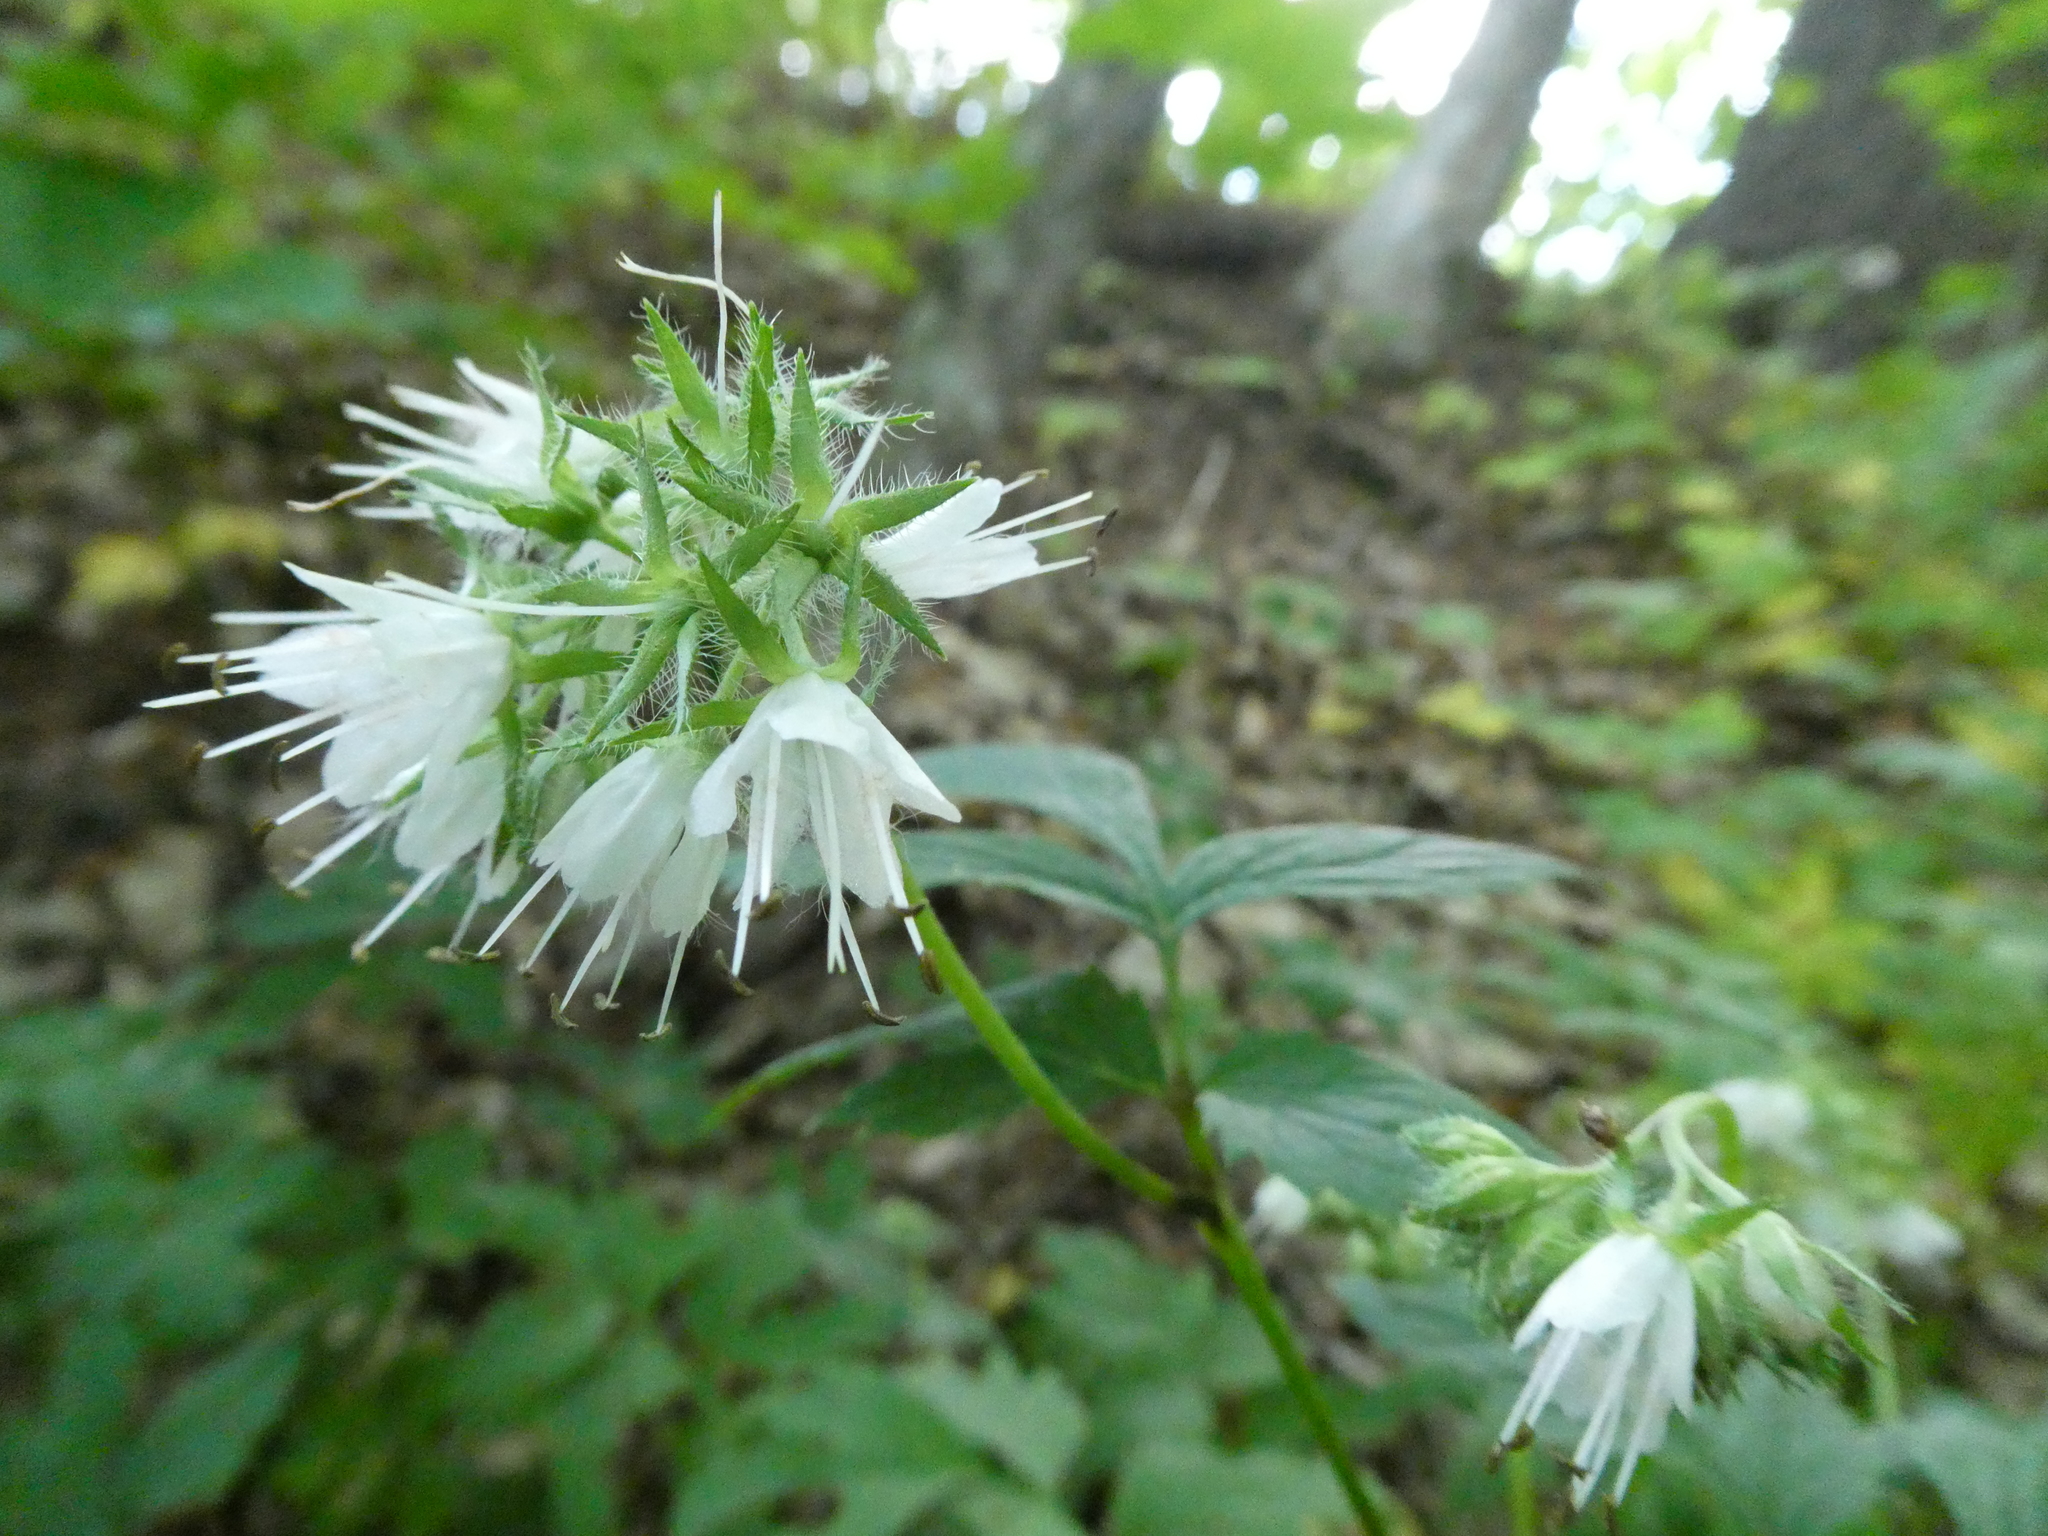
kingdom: Plantae
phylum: Tracheophyta
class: Magnoliopsida
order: Boraginales
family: Hydrophyllaceae
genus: Hydrophyllum
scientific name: Hydrophyllum virginianum
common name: Virginia waterleaf
